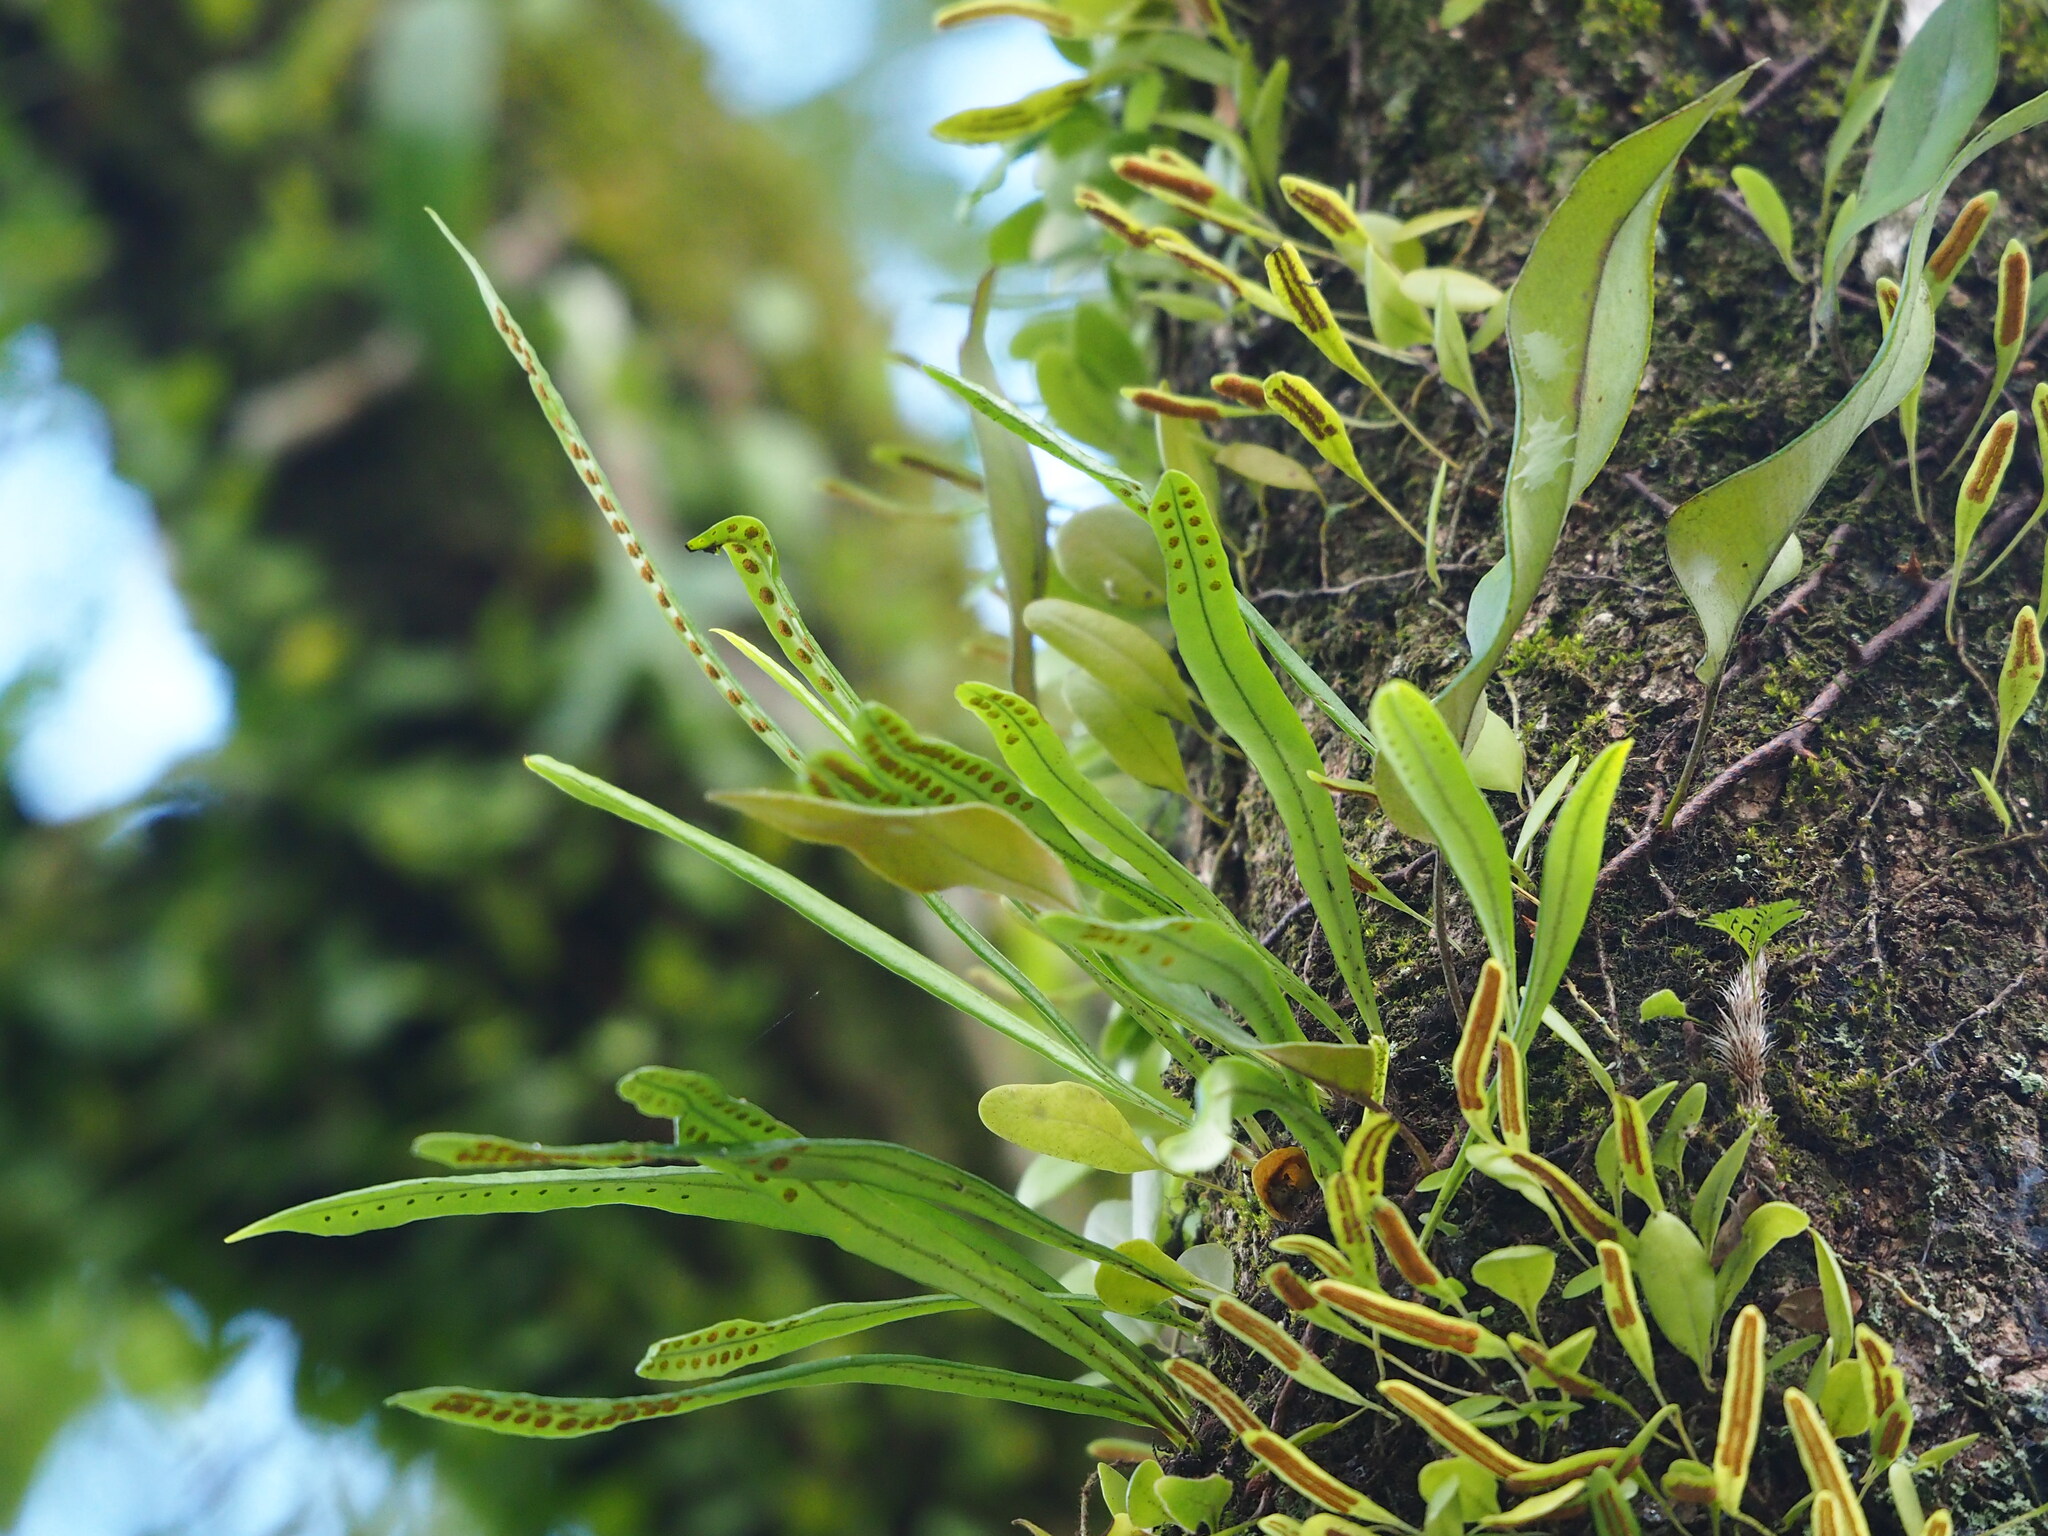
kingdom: Plantae
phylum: Tracheophyta
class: Polypodiopsida
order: Polypodiales
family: Polypodiaceae
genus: Lepisorus
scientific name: Lepisorus thunbergianus
